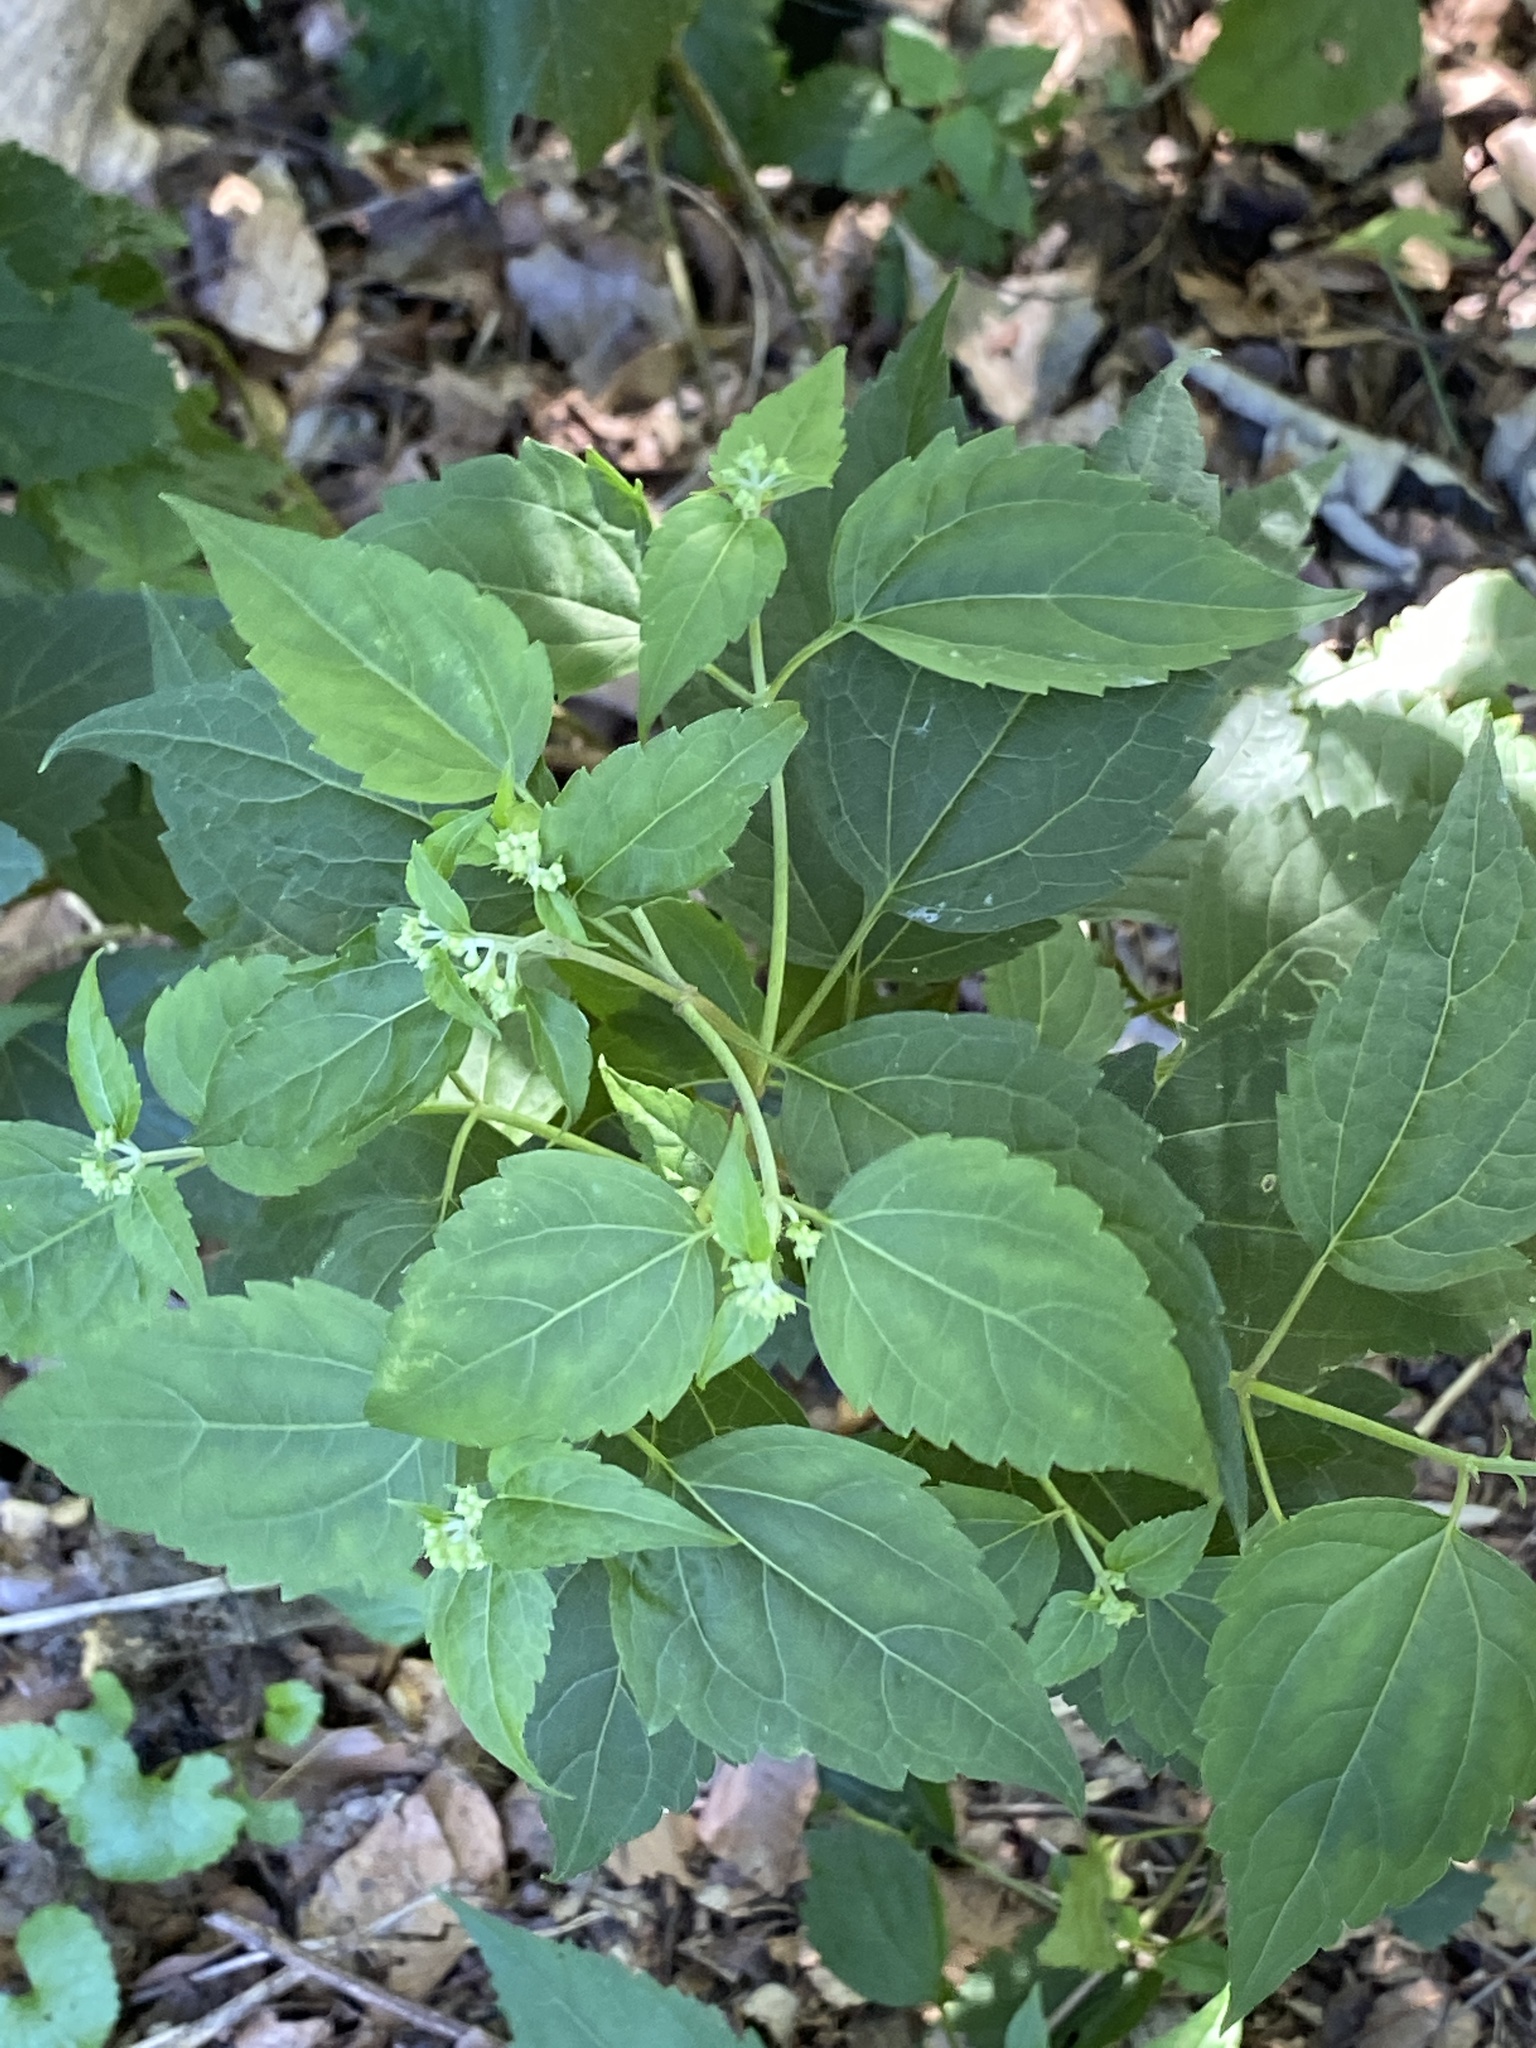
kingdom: Plantae
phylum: Tracheophyta
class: Magnoliopsida
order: Asterales
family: Asteraceae
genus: Ageratina
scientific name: Ageratina altissima
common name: White snakeroot
